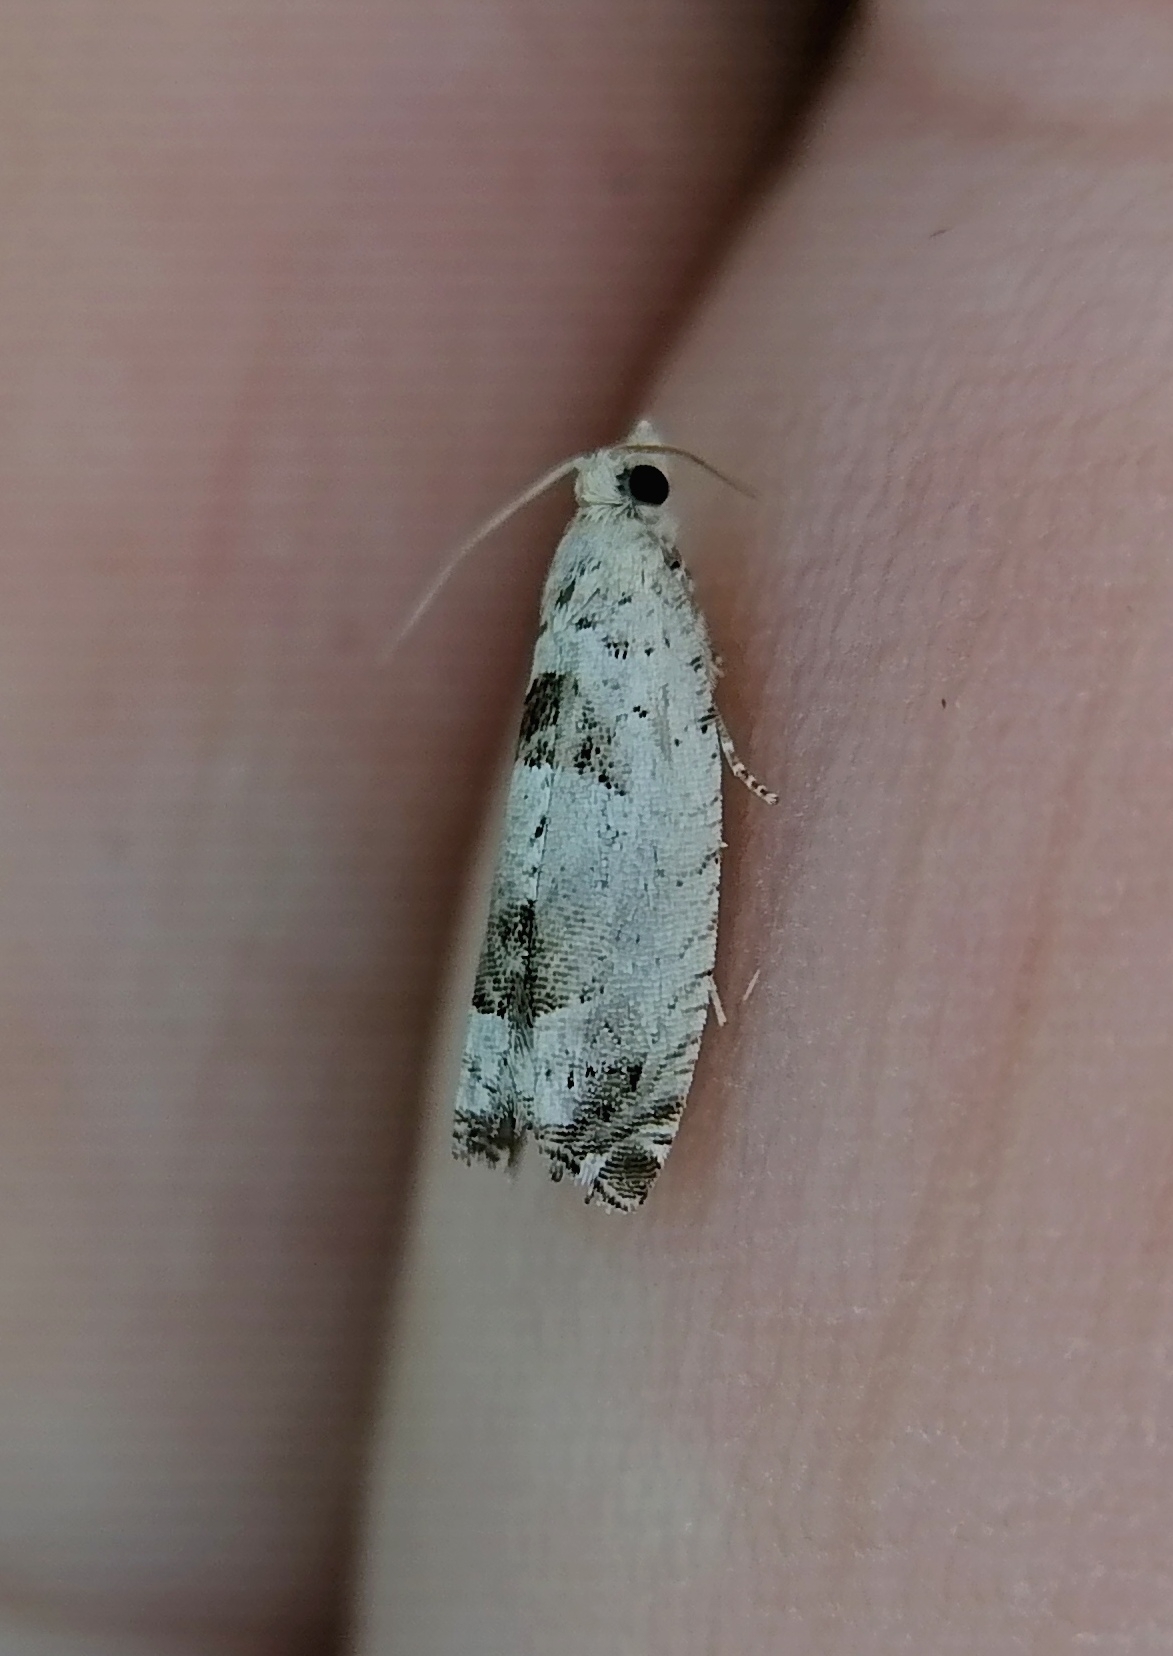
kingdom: Animalia
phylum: Arthropoda
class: Insecta
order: Lepidoptera
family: Tortricidae
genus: Epinotia
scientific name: Epinotia ramella
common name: Small birch bell
